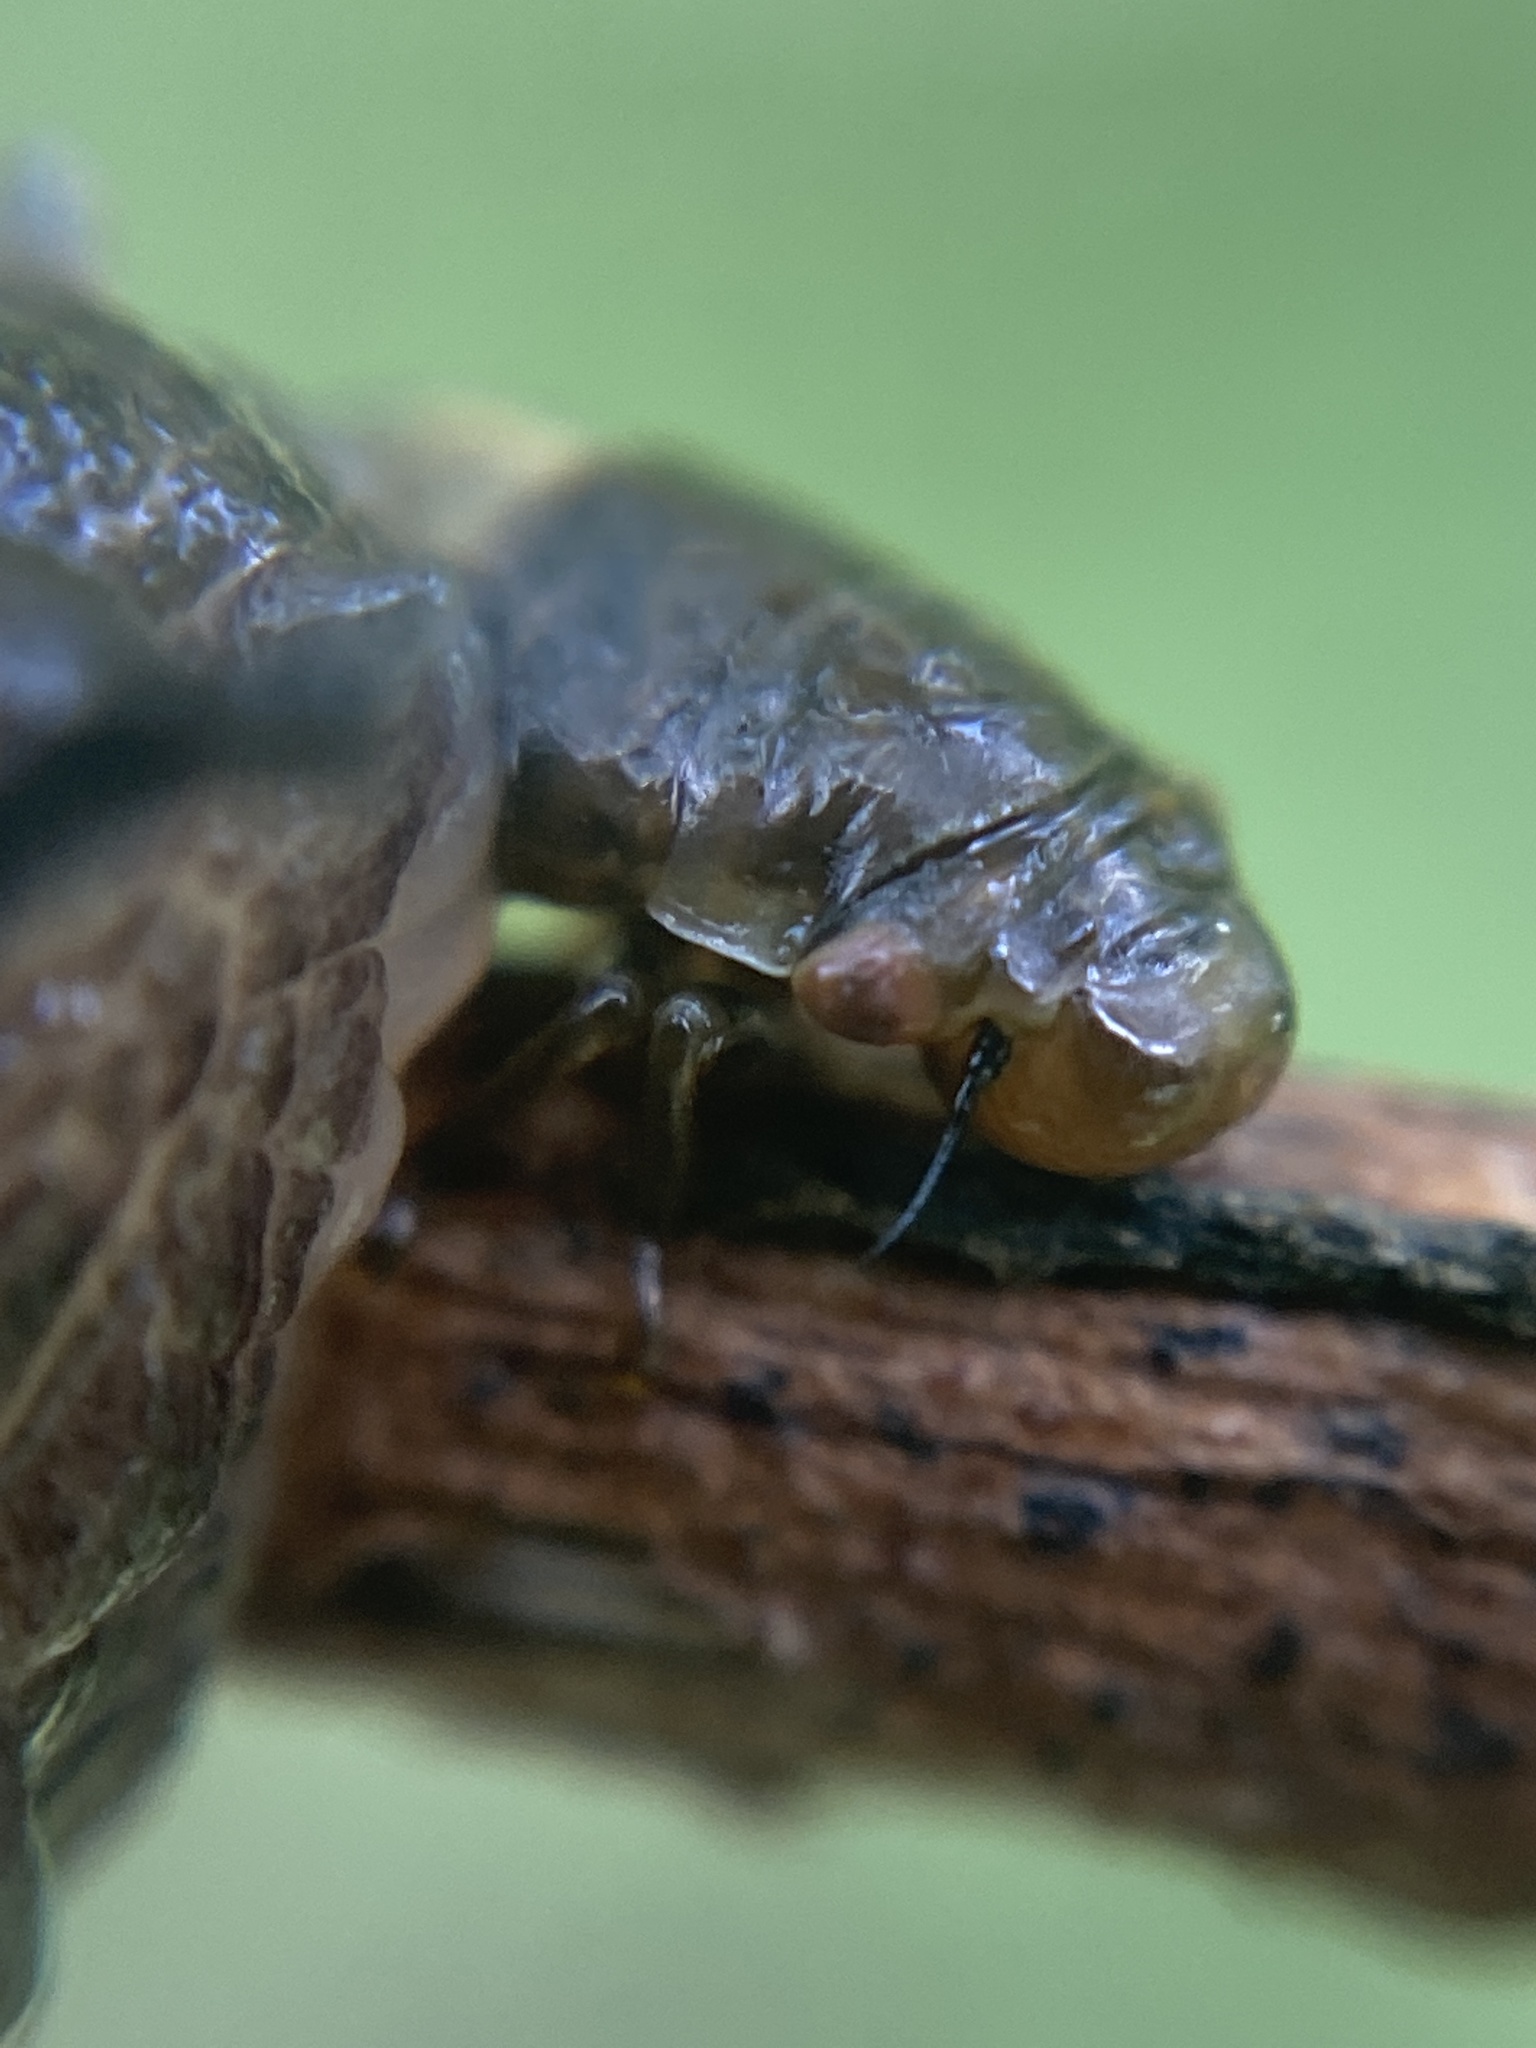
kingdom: Animalia
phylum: Arthropoda
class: Insecta
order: Hemiptera
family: Aphrophoridae
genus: Lepyronia
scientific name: Lepyronia coleoptrata
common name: Leafhopper
